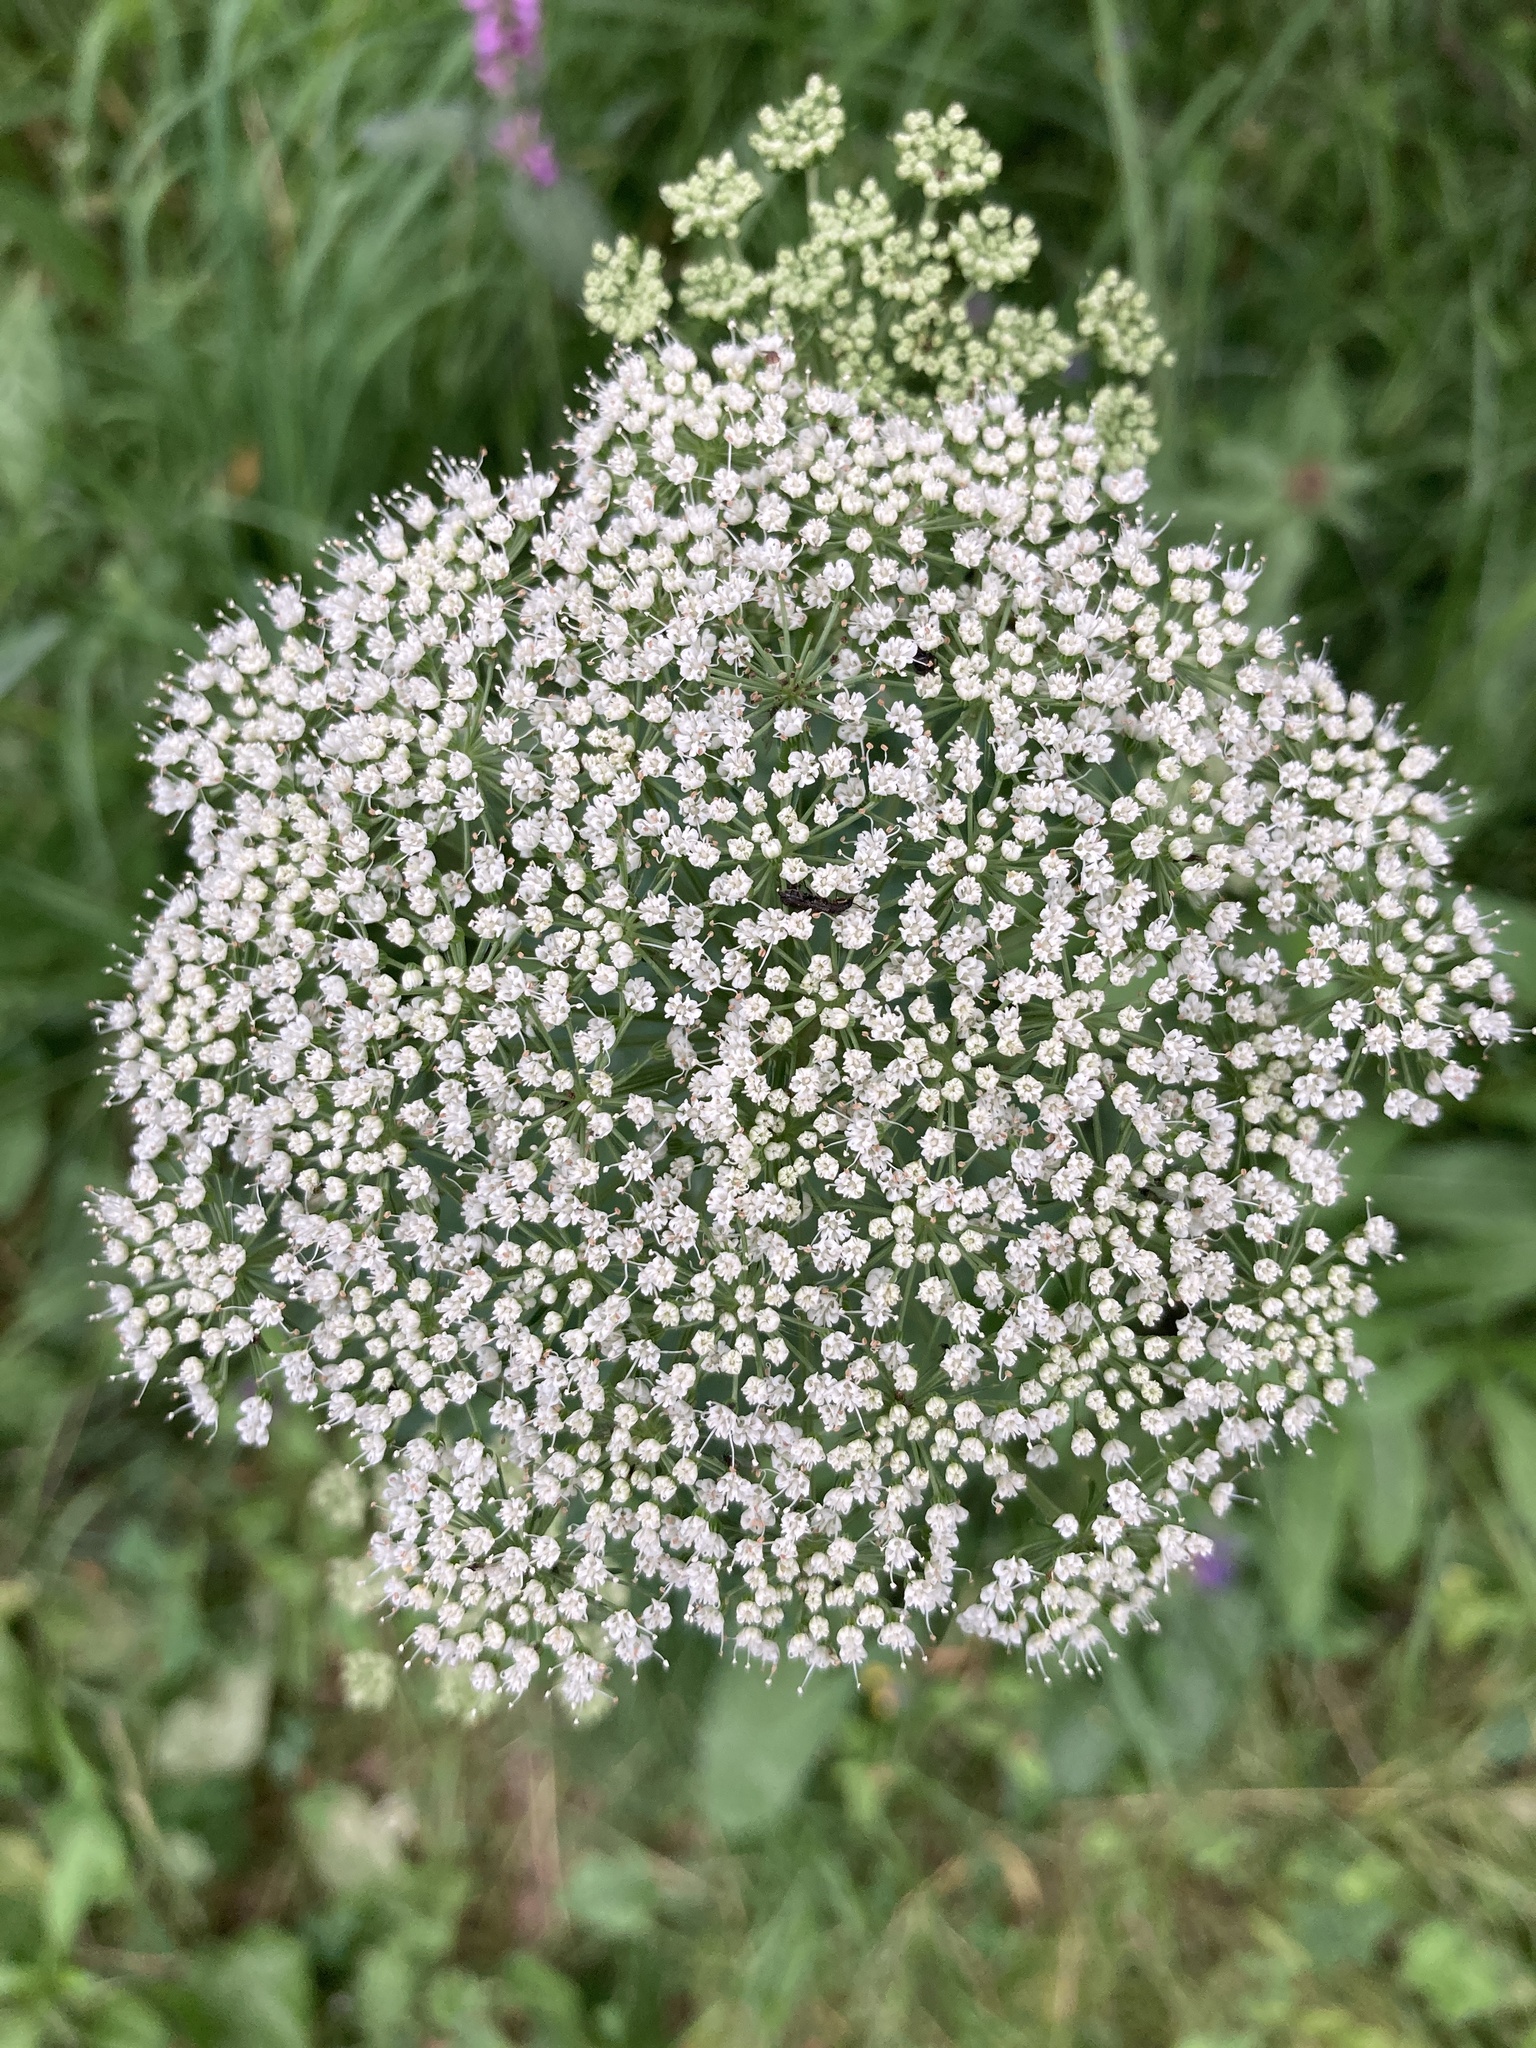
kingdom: Plantae
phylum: Tracheophyta
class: Magnoliopsida
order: Apiales
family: Apiaceae
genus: Selinum
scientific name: Selinum carvifolia
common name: Cambridge milk-parsley
